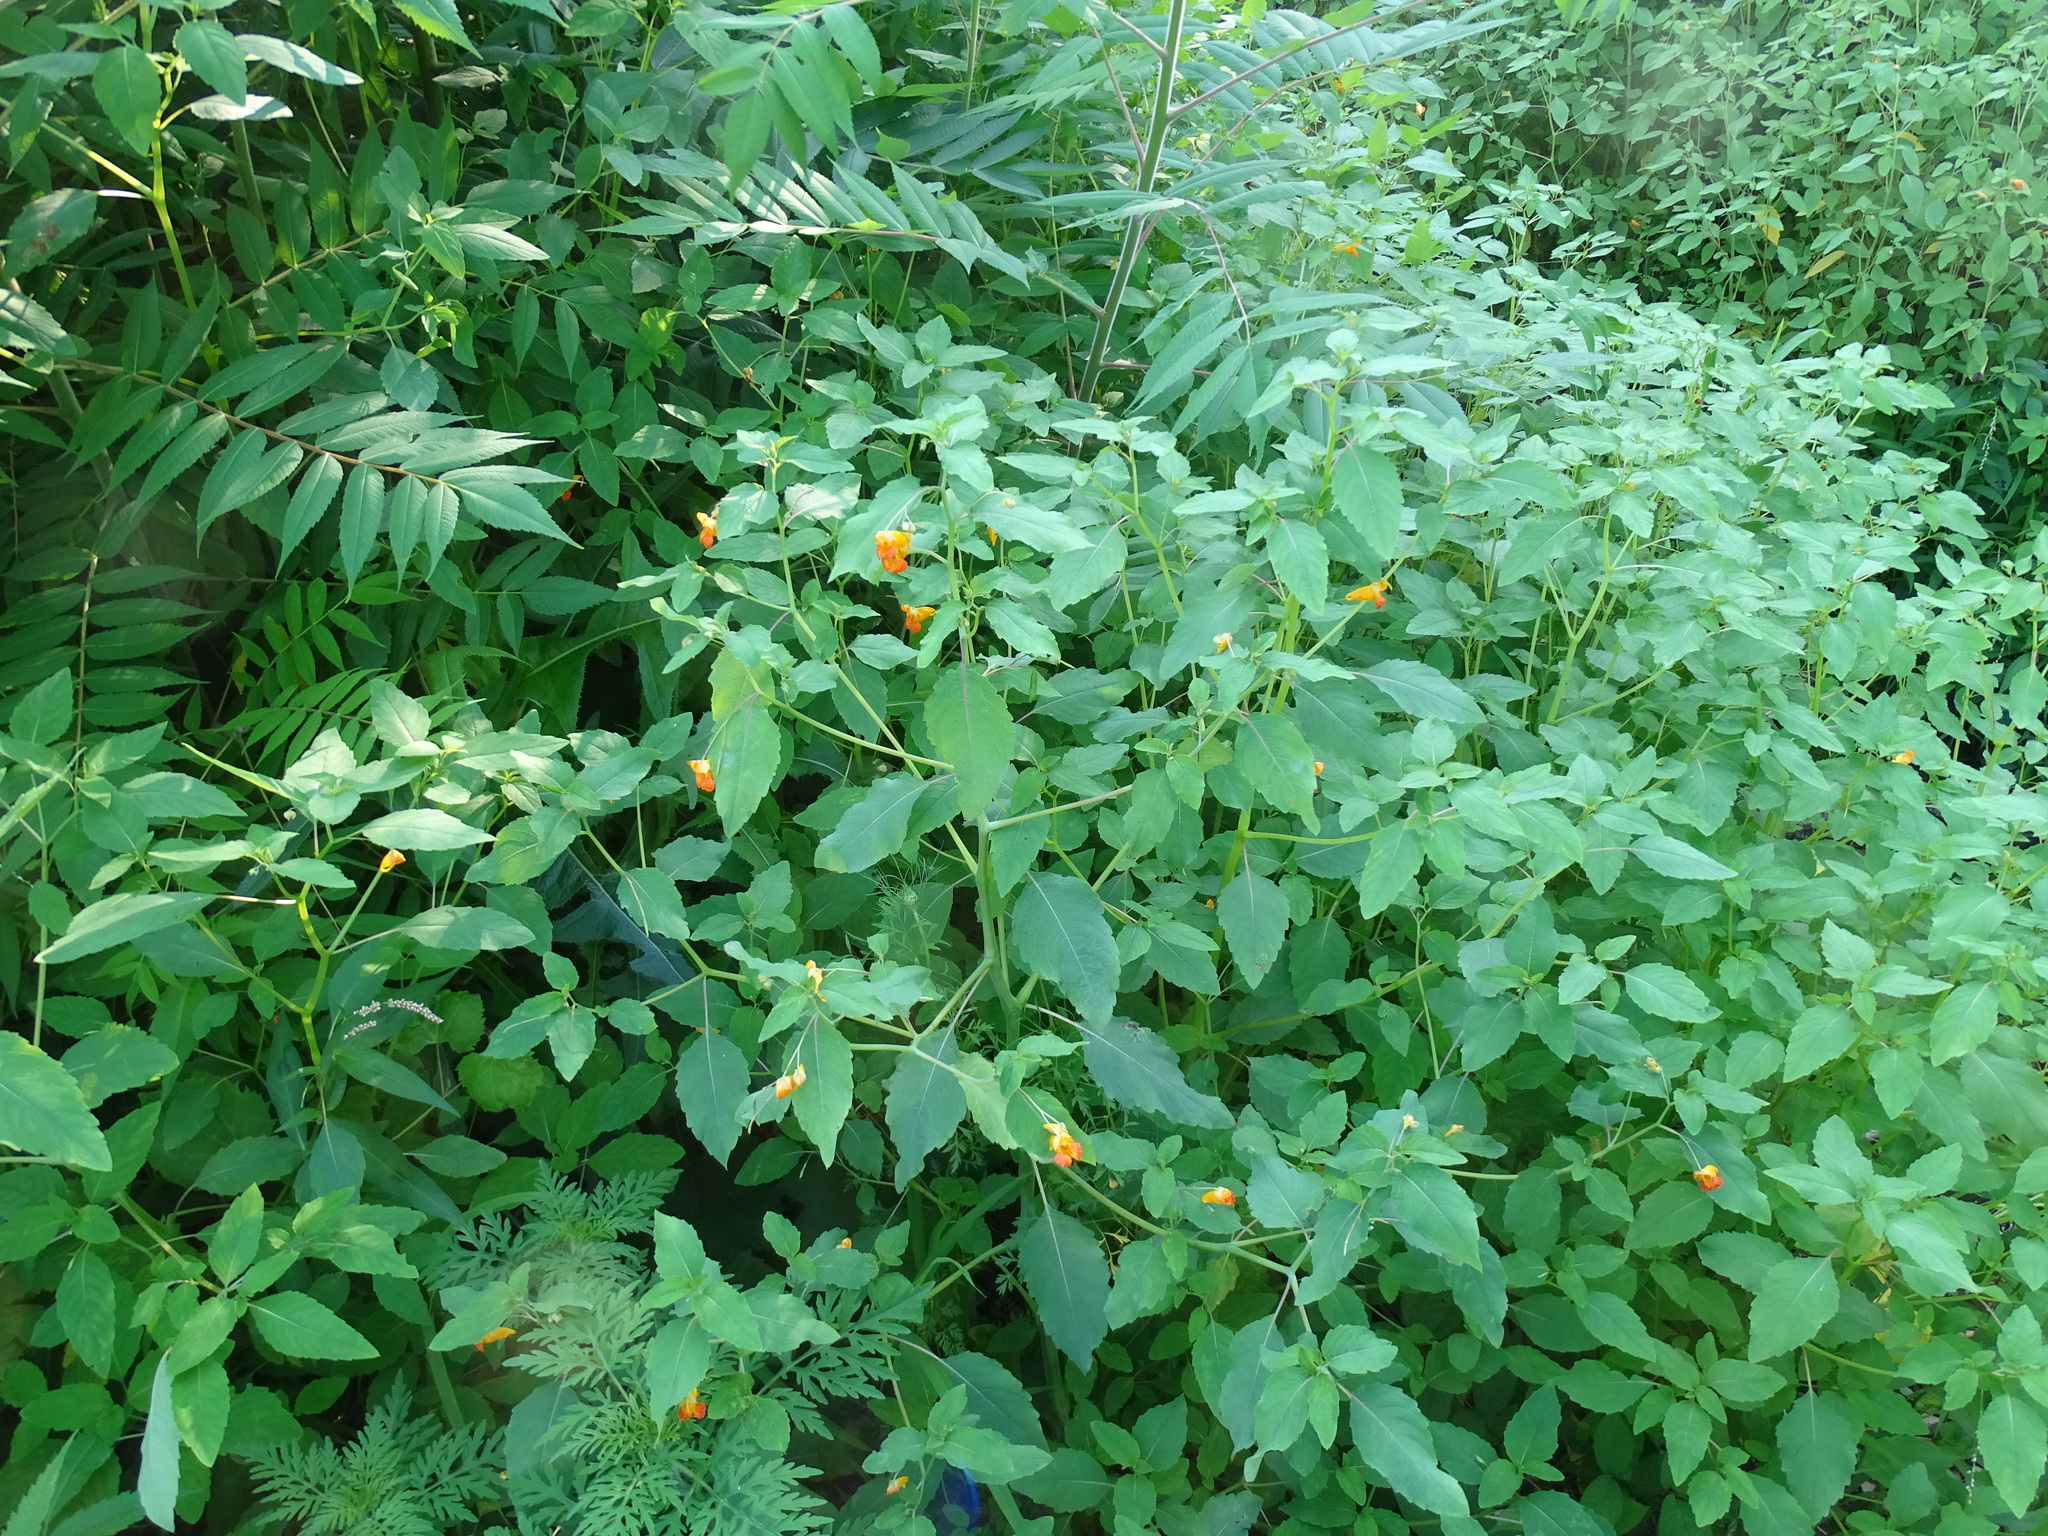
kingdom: Plantae
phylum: Tracheophyta
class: Magnoliopsida
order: Ericales
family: Balsaminaceae
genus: Impatiens
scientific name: Impatiens capensis
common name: Orange balsam
